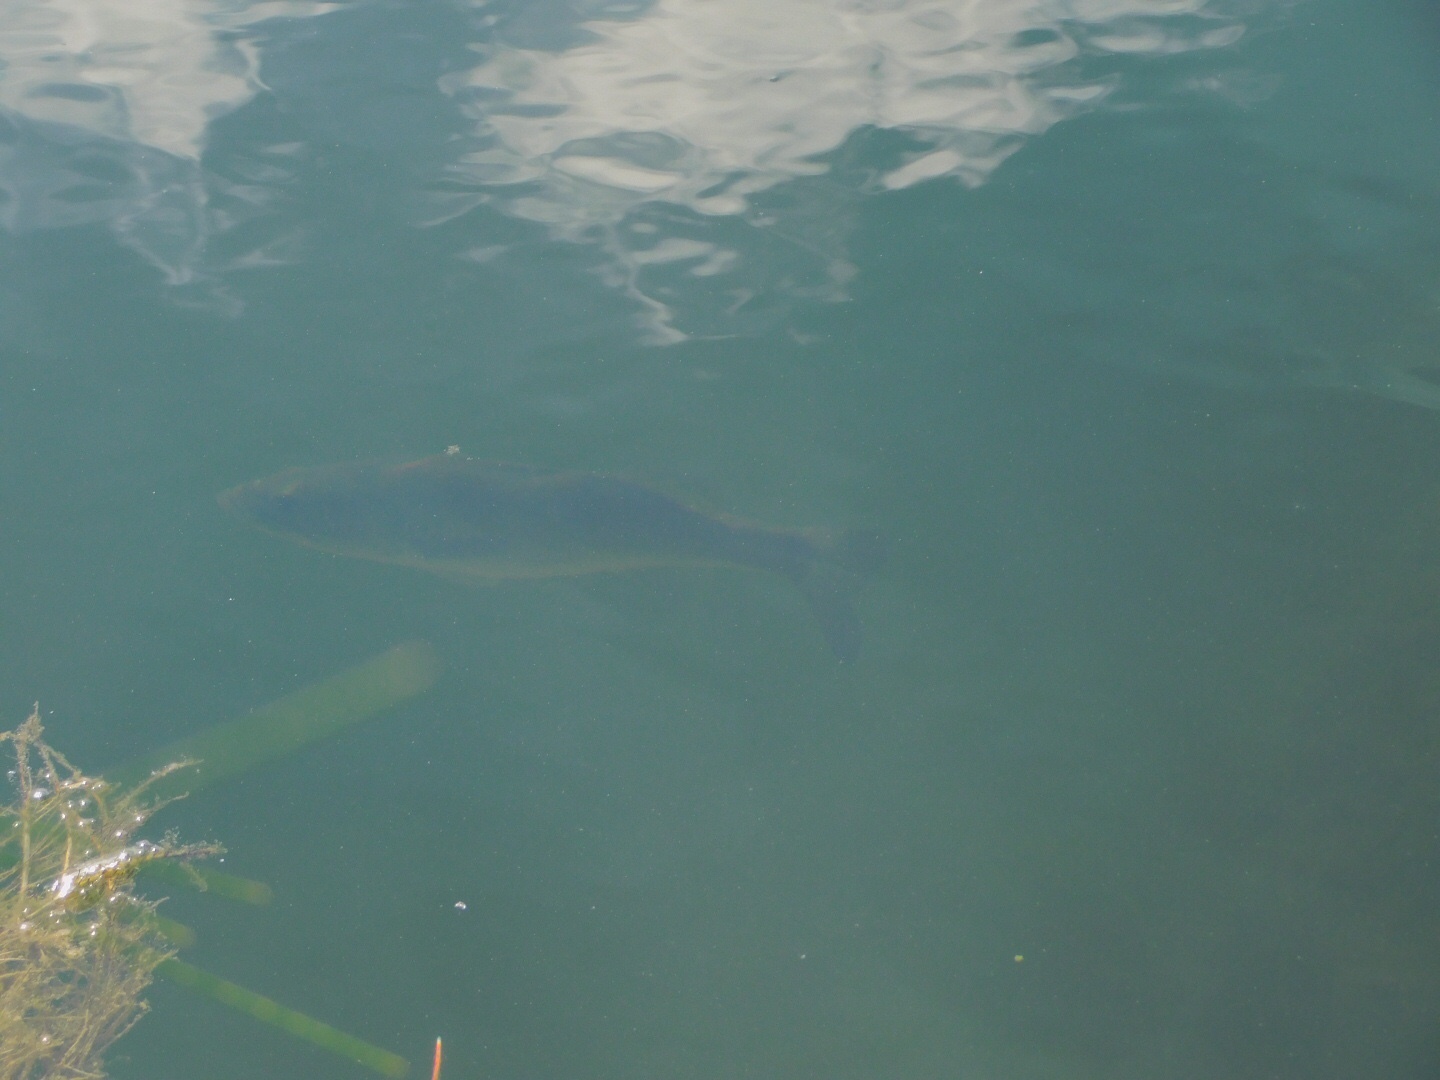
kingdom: Animalia
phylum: Chordata
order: Perciformes
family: Centrarchidae
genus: Micropterus
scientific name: Micropterus salmoides
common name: Largemouth bass
